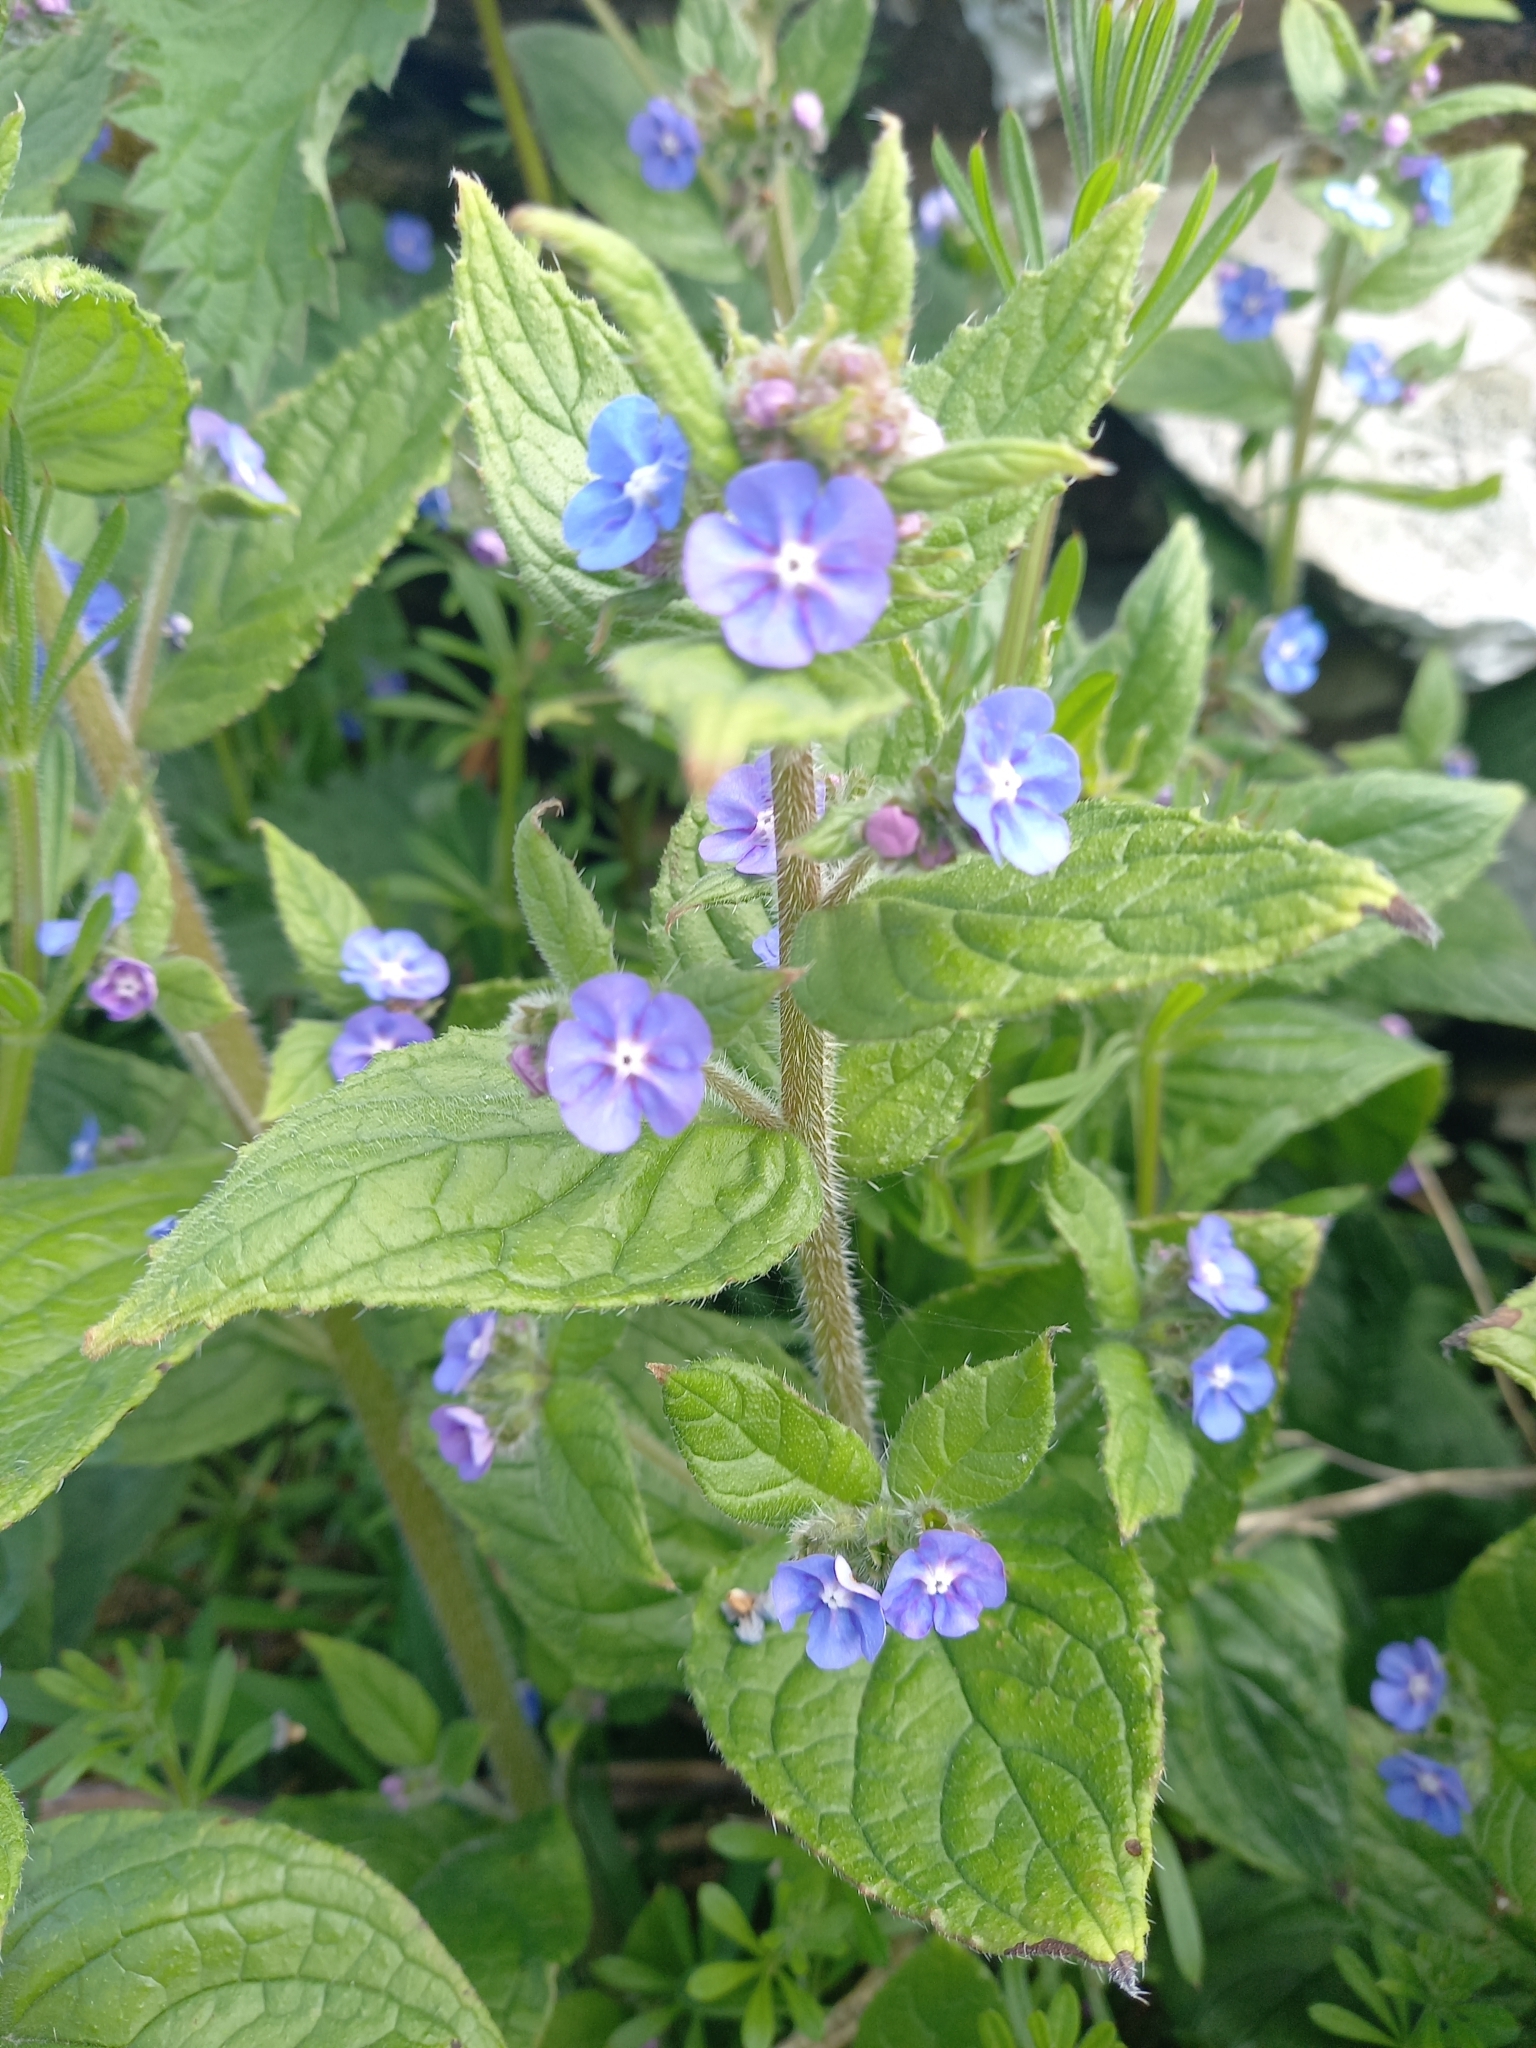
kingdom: Plantae
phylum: Tracheophyta
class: Magnoliopsida
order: Boraginales
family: Boraginaceae
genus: Pentaglottis
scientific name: Pentaglottis sempervirens
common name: Green alkanet
